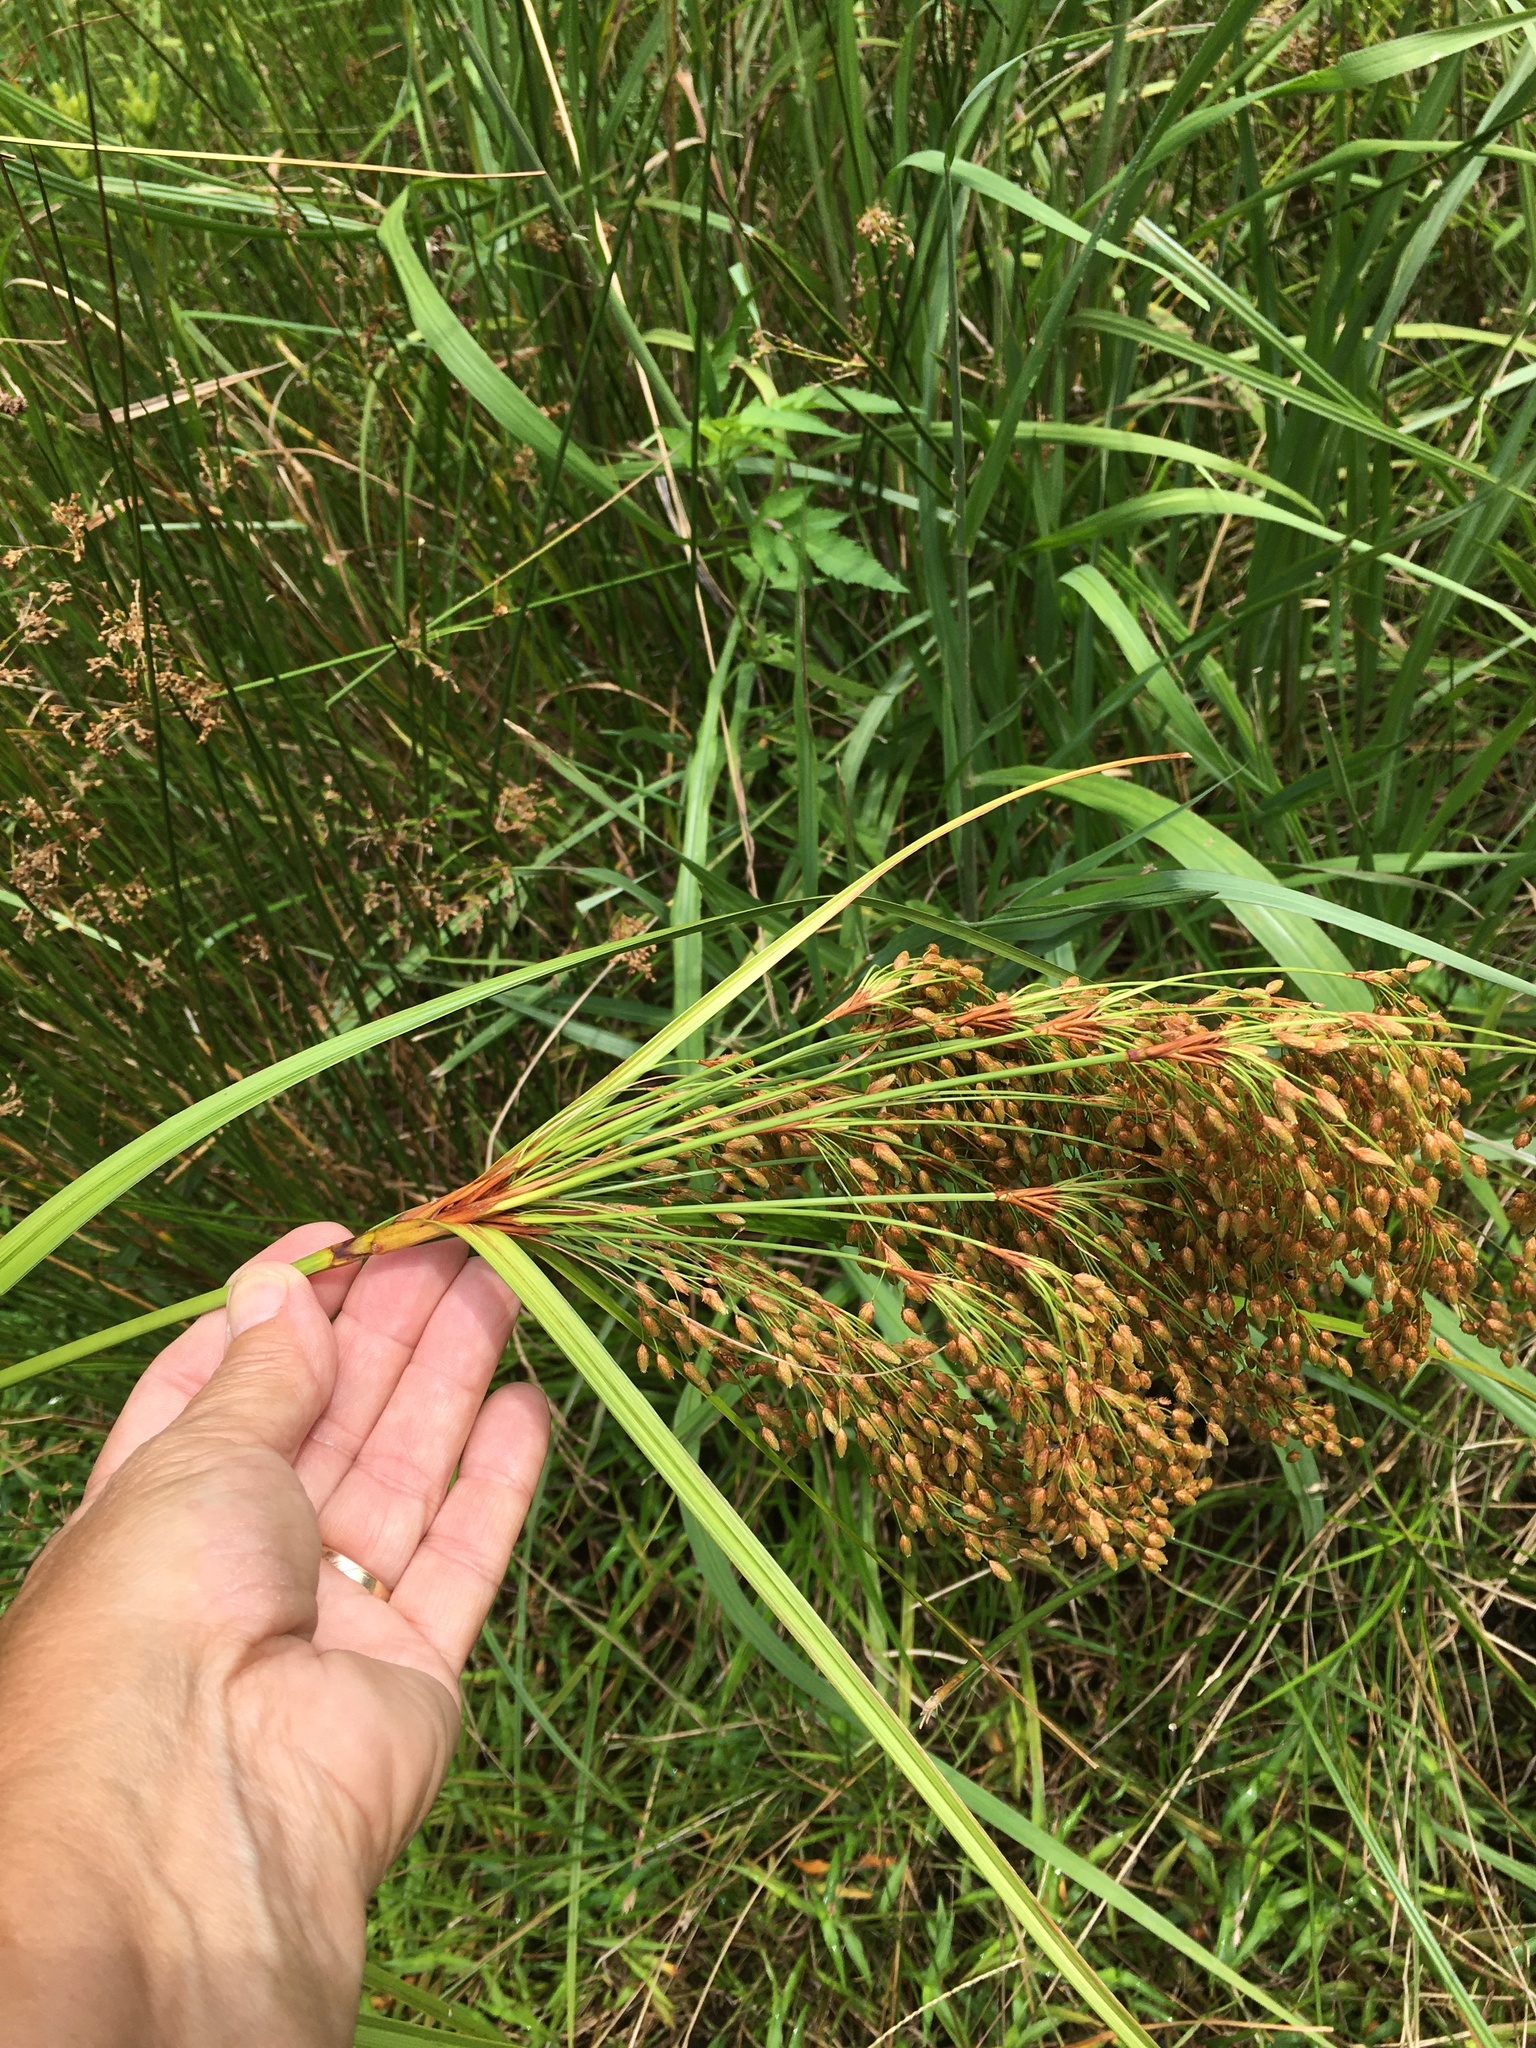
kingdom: Plantae
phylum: Tracheophyta
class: Liliopsida
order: Poales
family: Cyperaceae
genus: Scirpus
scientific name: Scirpus cyperinus
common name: Black-sheathed bulrush
